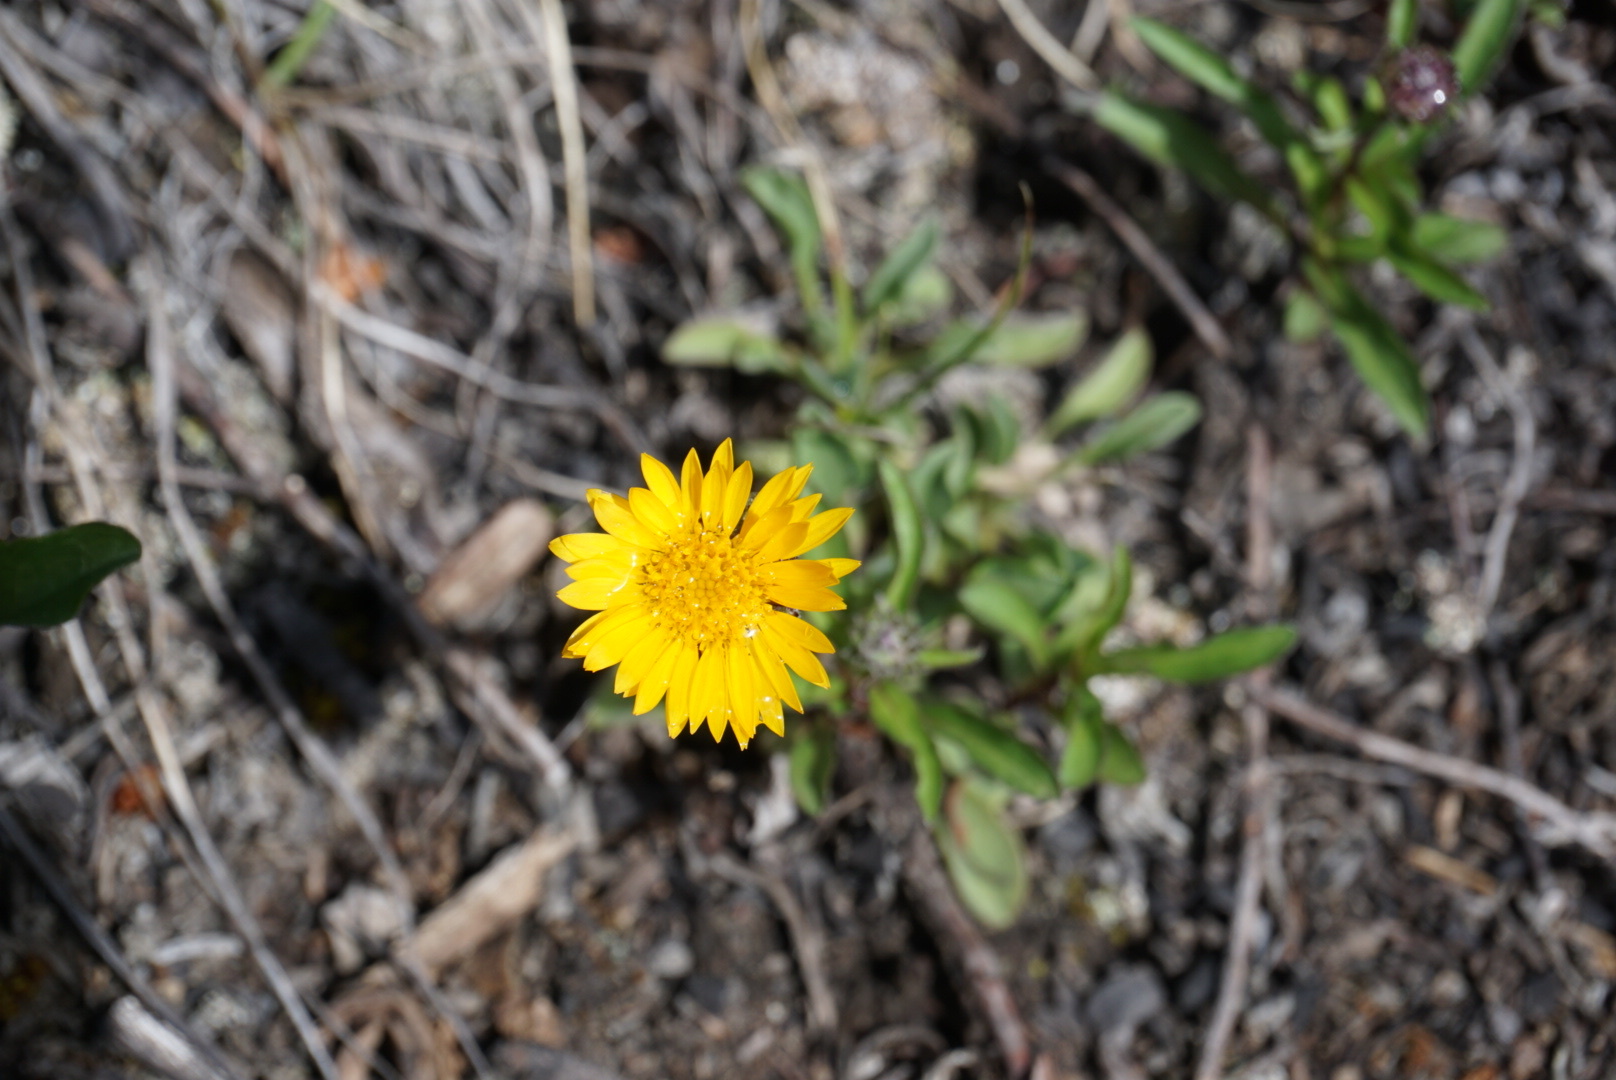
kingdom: Plantae
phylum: Tracheophyta
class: Magnoliopsida
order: Asterales
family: Asteraceae
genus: Heterotheca
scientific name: Heterotheca villosa
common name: Hairy false goldenaster
